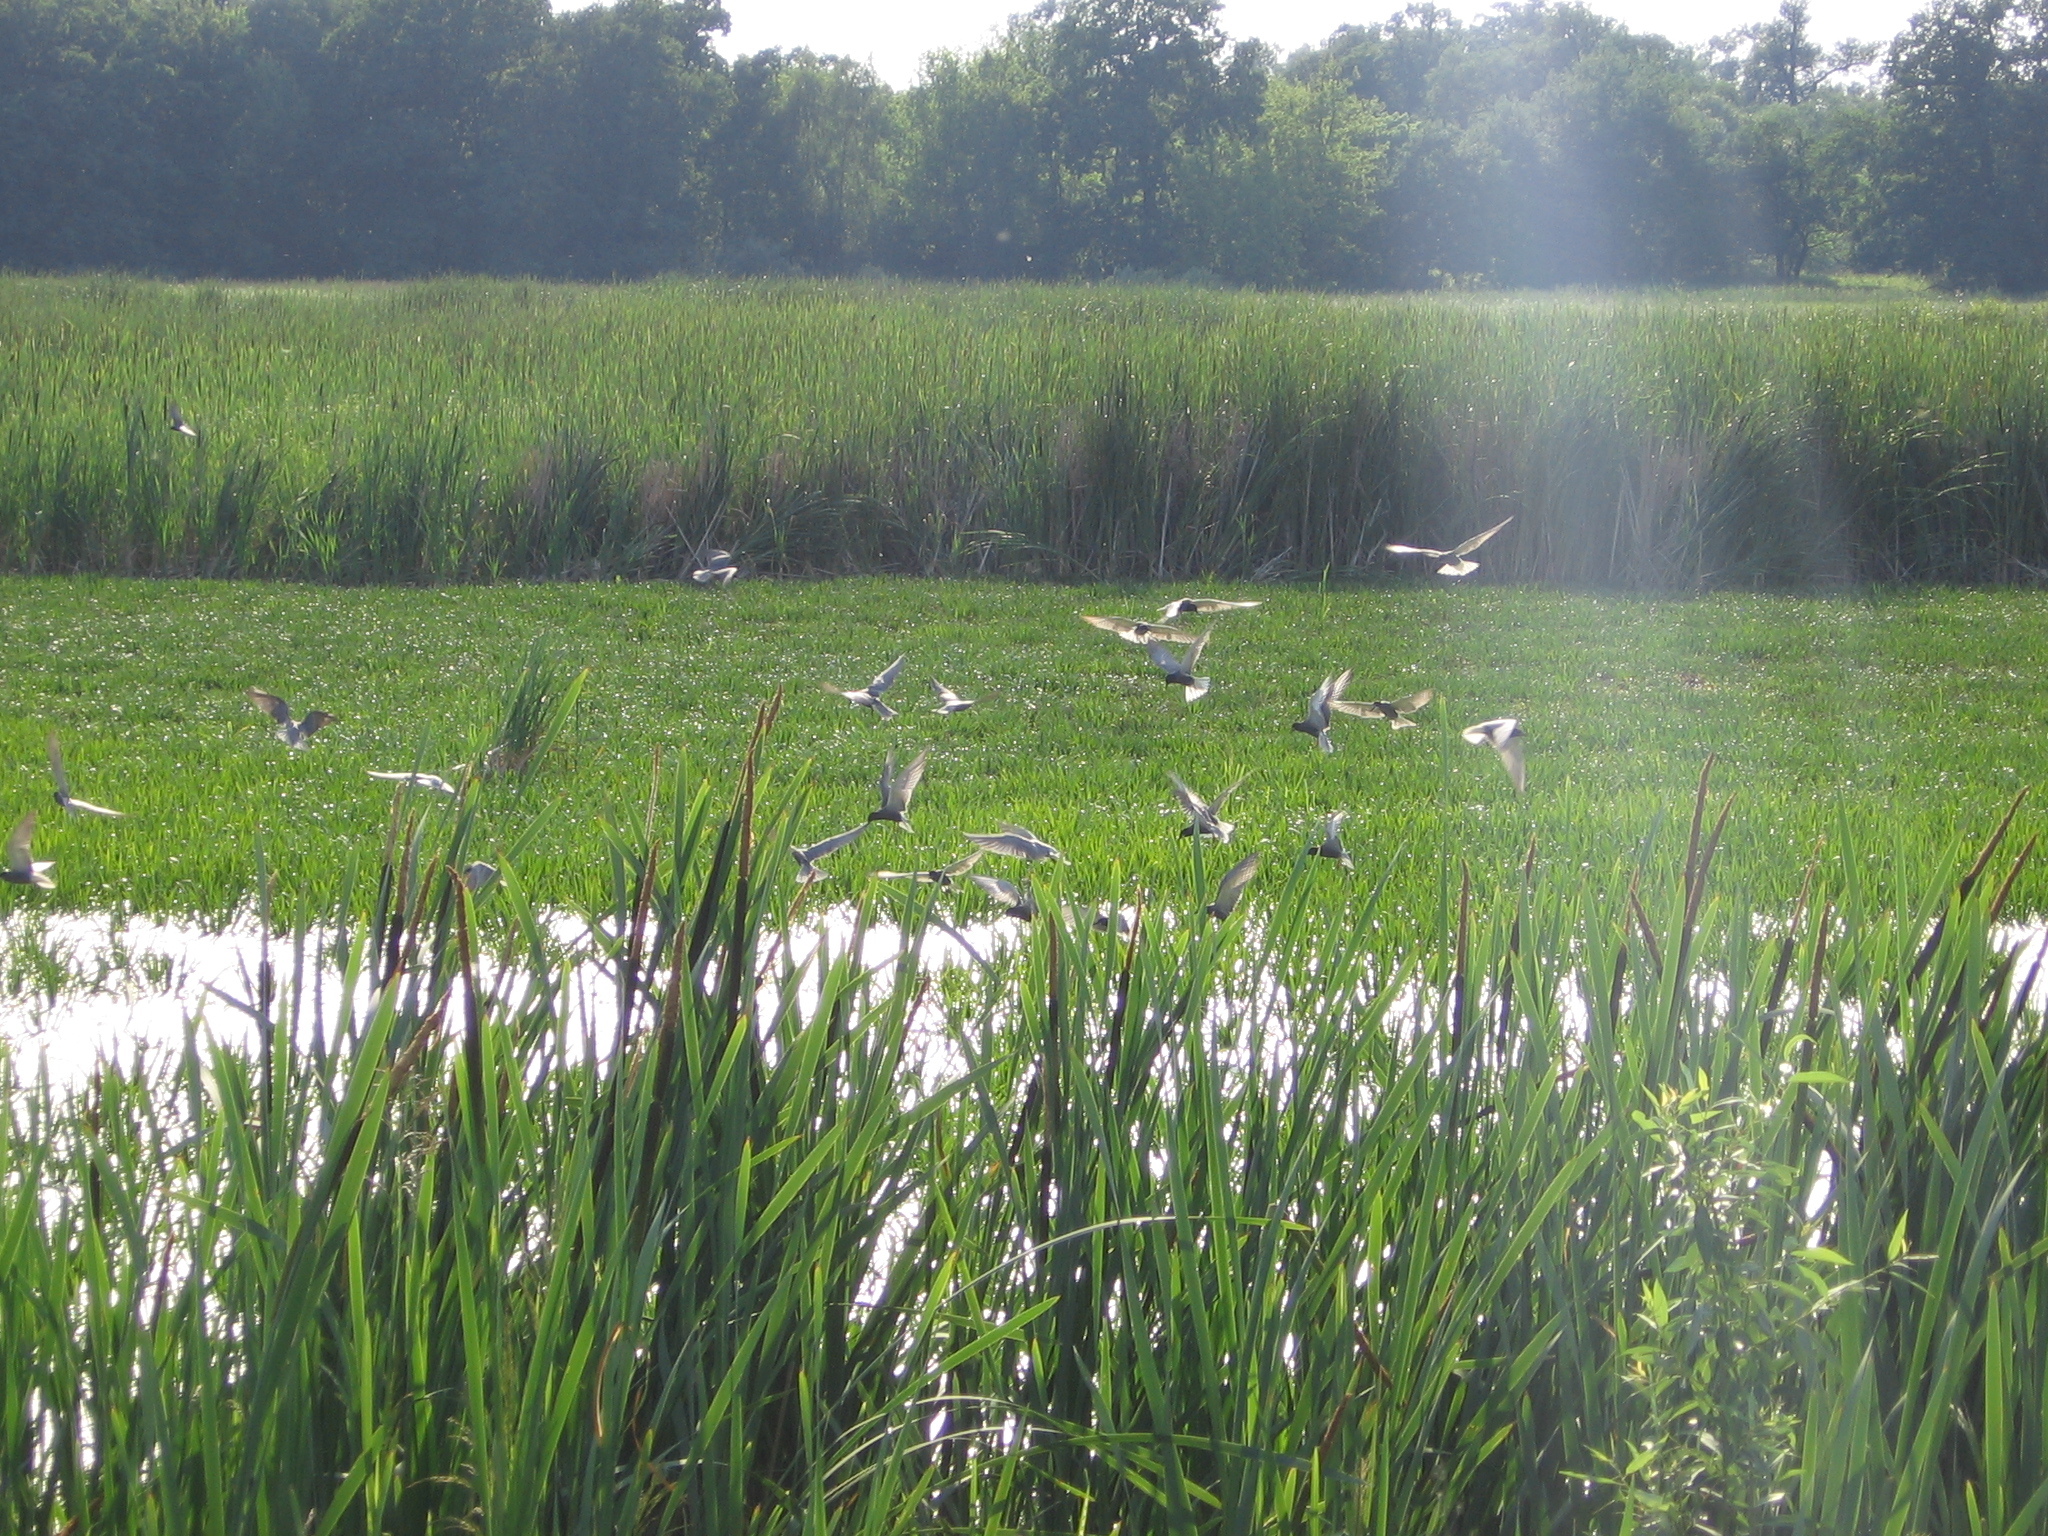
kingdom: Animalia
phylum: Chordata
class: Aves
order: Charadriiformes
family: Laridae
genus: Chlidonias
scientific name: Chlidonias niger
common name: Black tern
